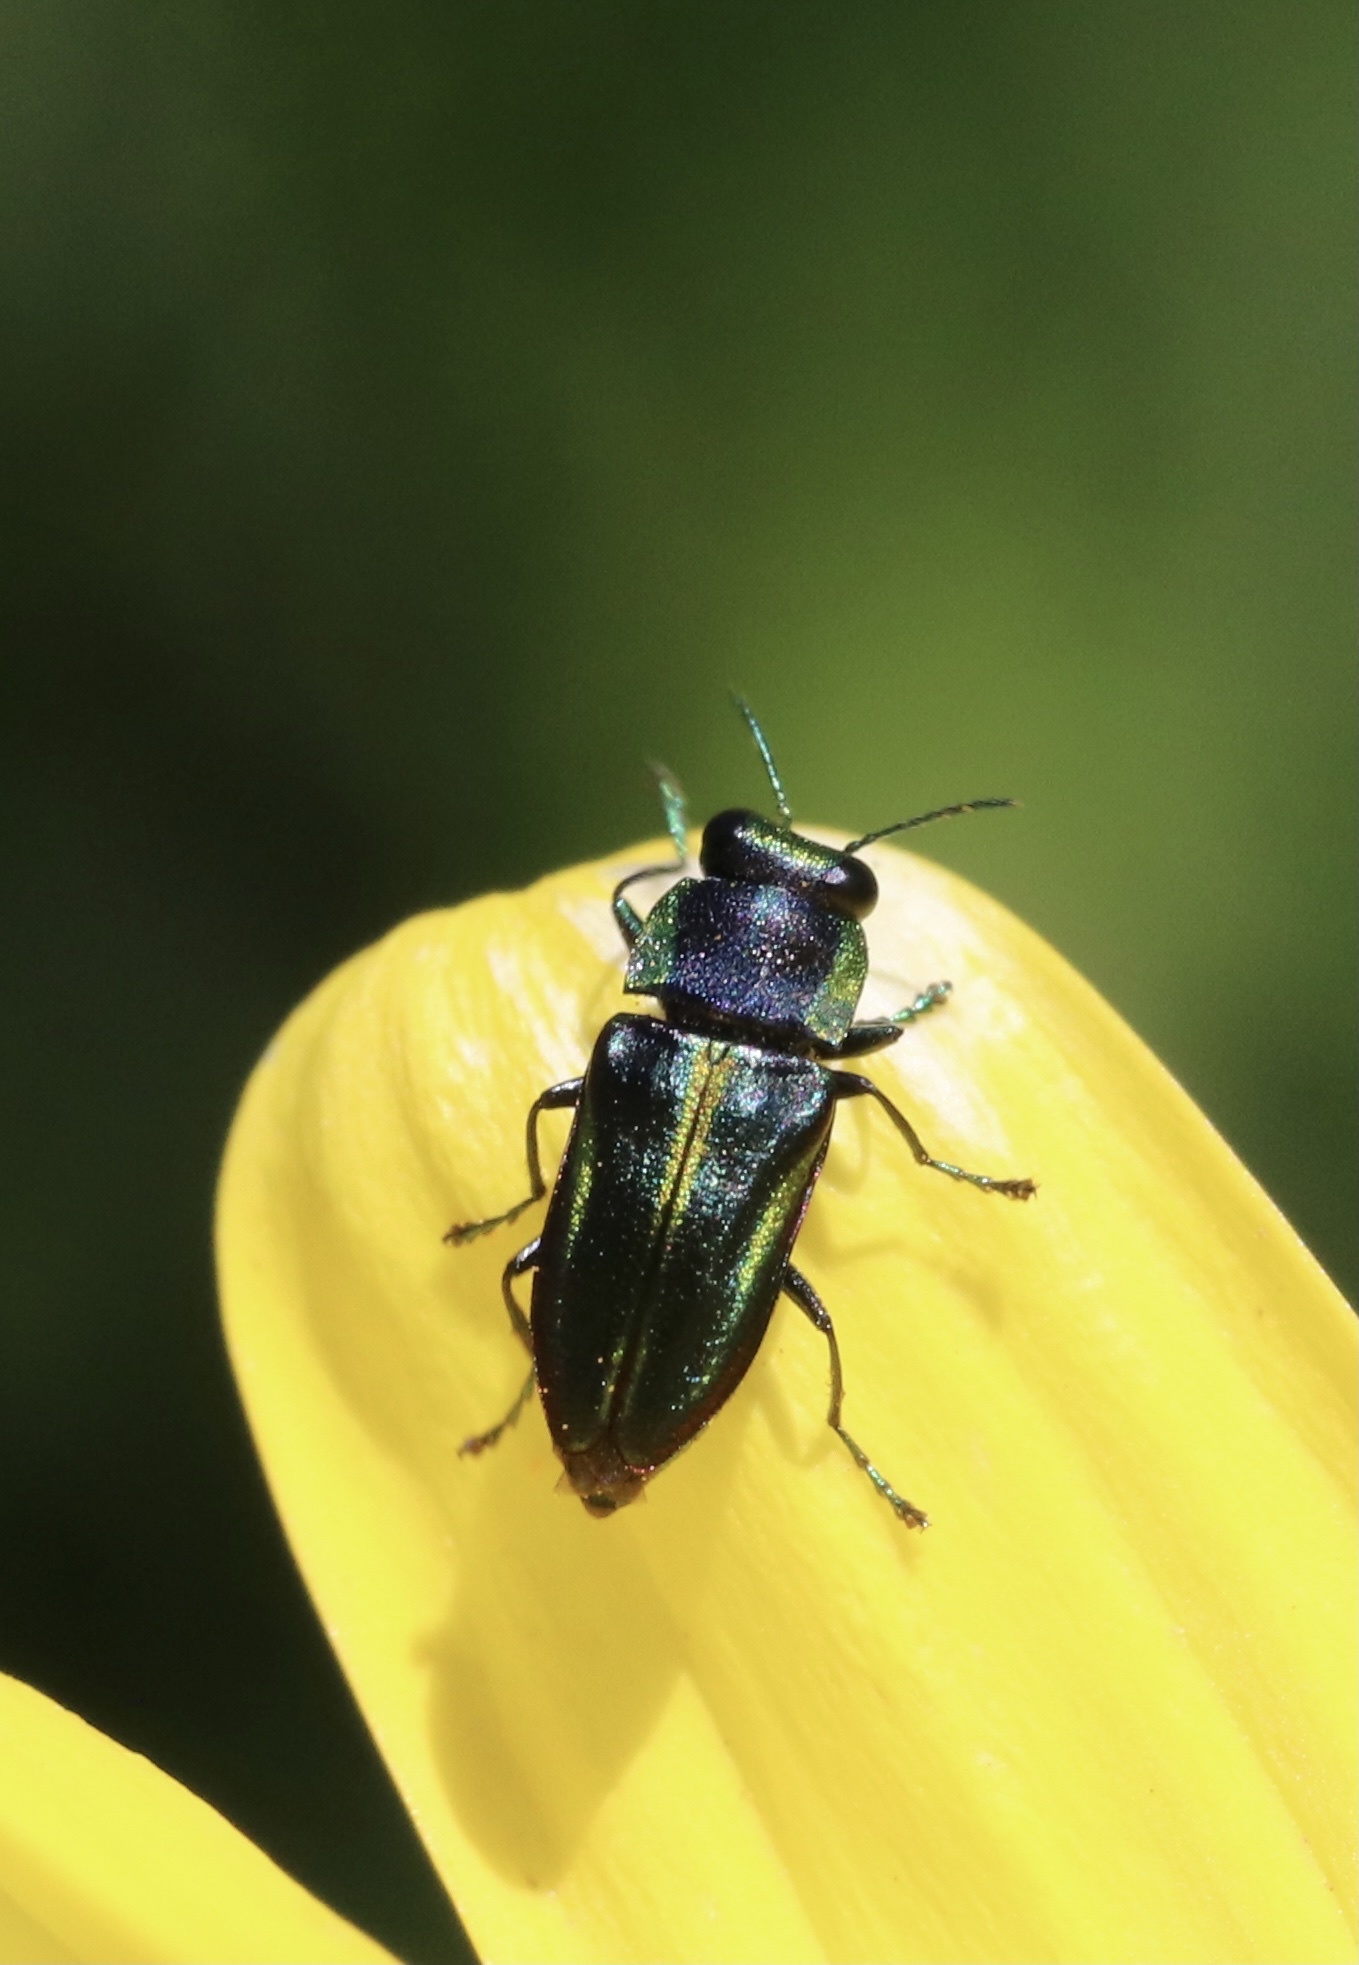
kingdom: Animalia
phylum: Arthropoda
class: Insecta
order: Coleoptera
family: Buprestidae
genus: Bilyaxia
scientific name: Bilyaxia concinna
